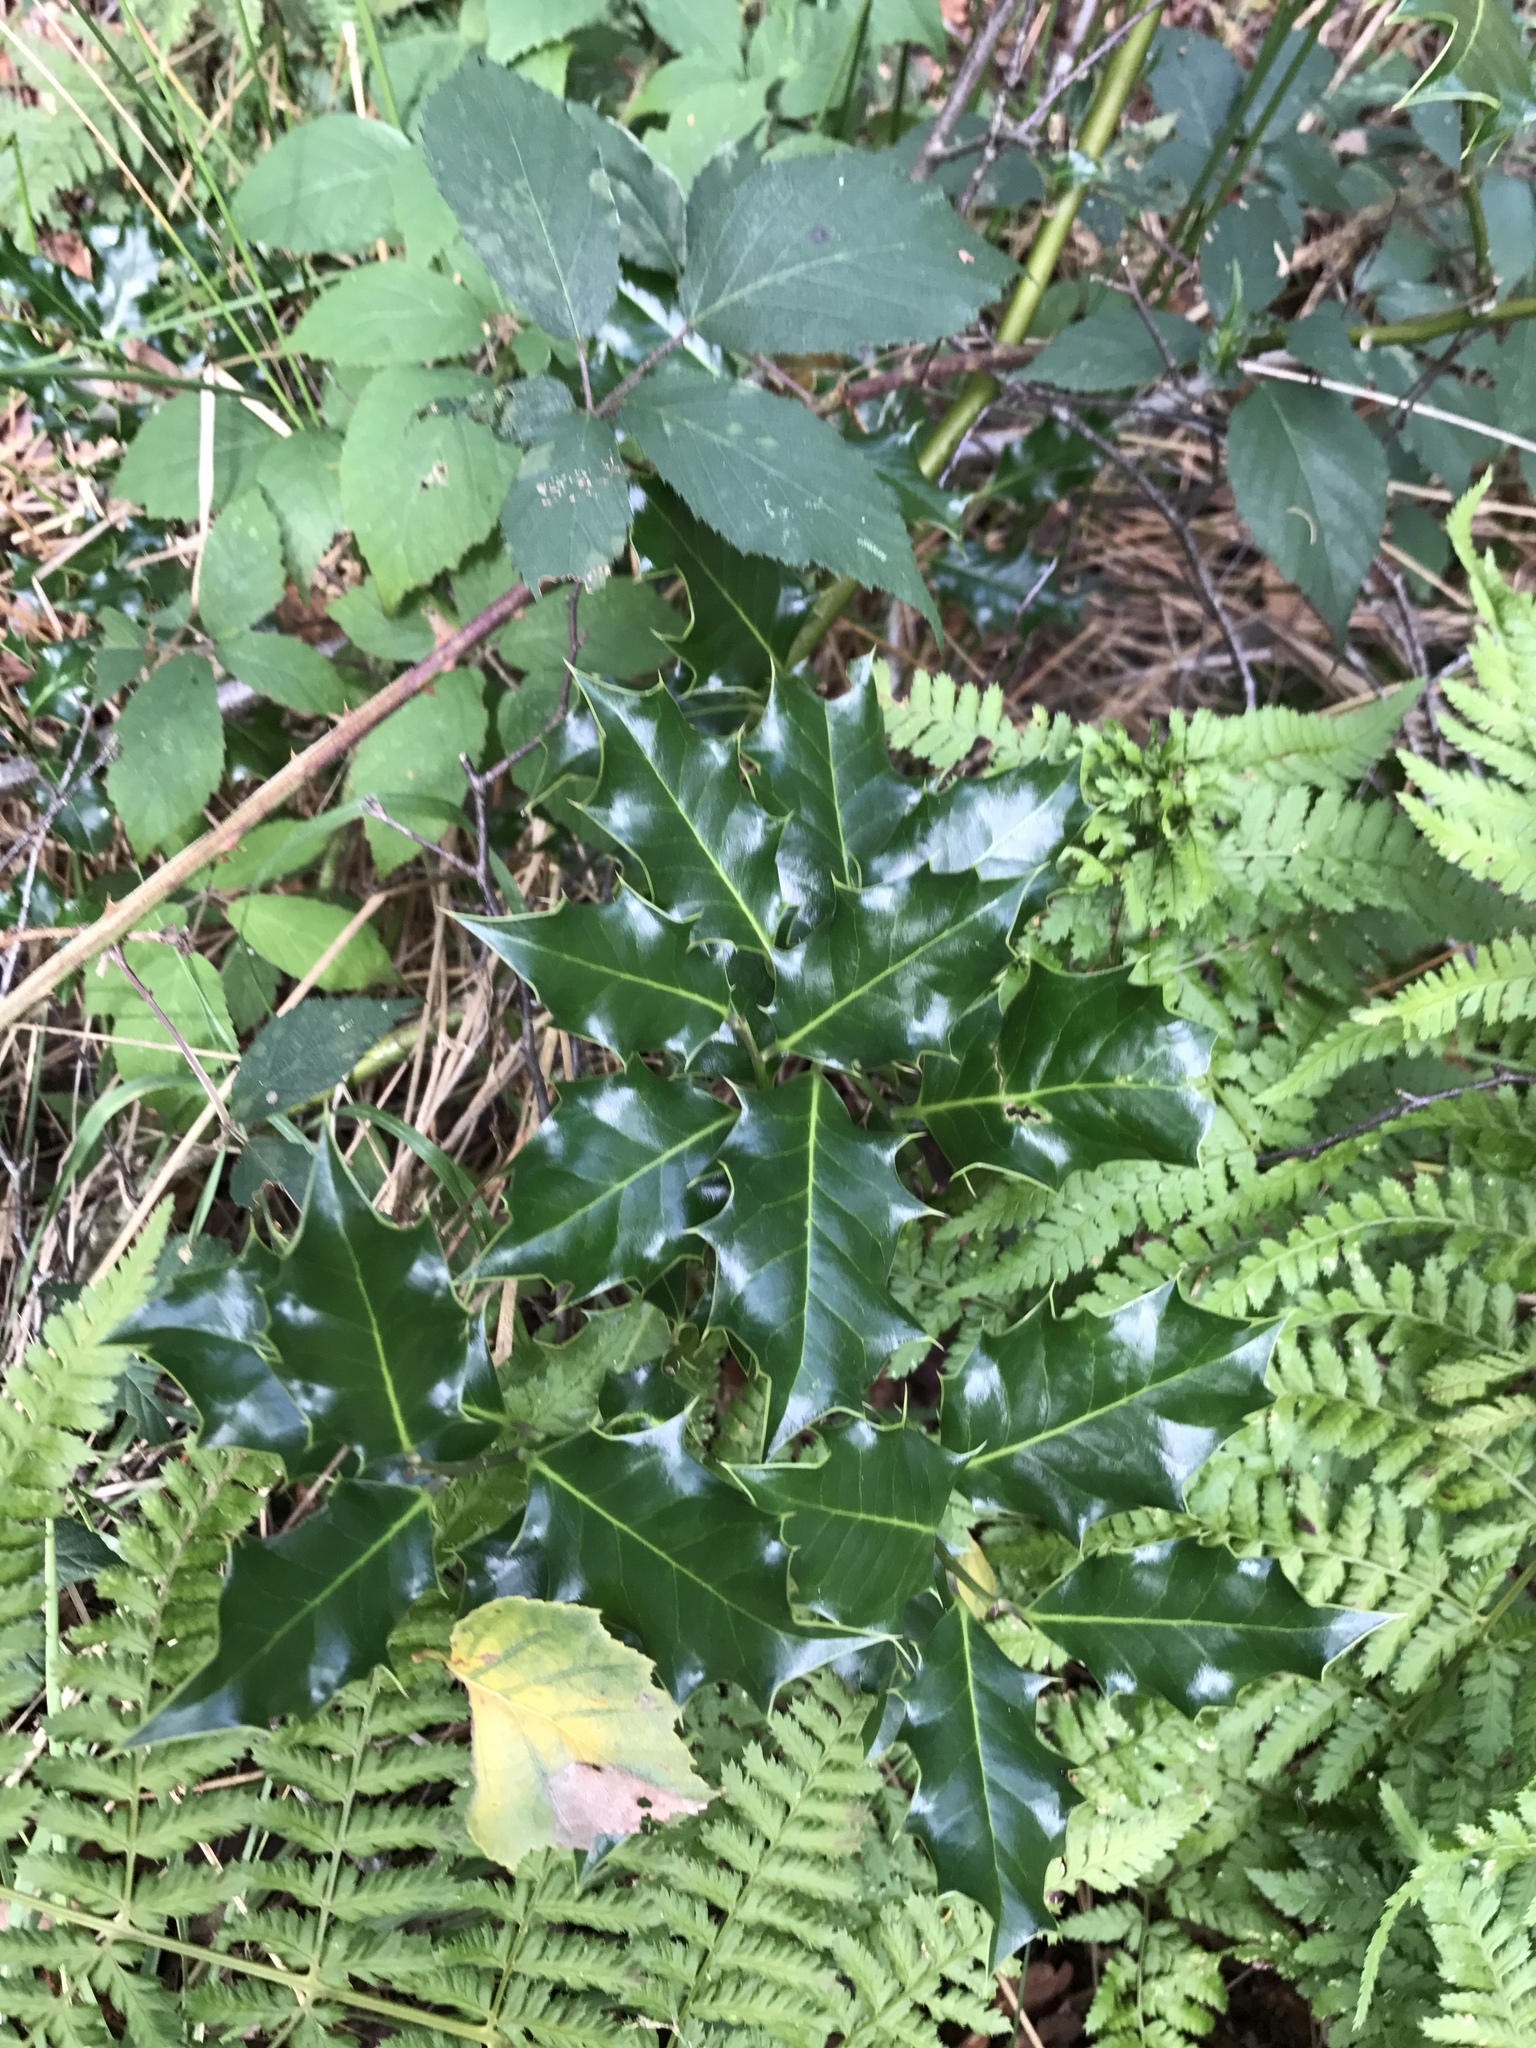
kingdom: Plantae
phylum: Tracheophyta
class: Magnoliopsida
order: Aquifoliales
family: Aquifoliaceae
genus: Ilex
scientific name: Ilex aquifolium
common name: English holly
